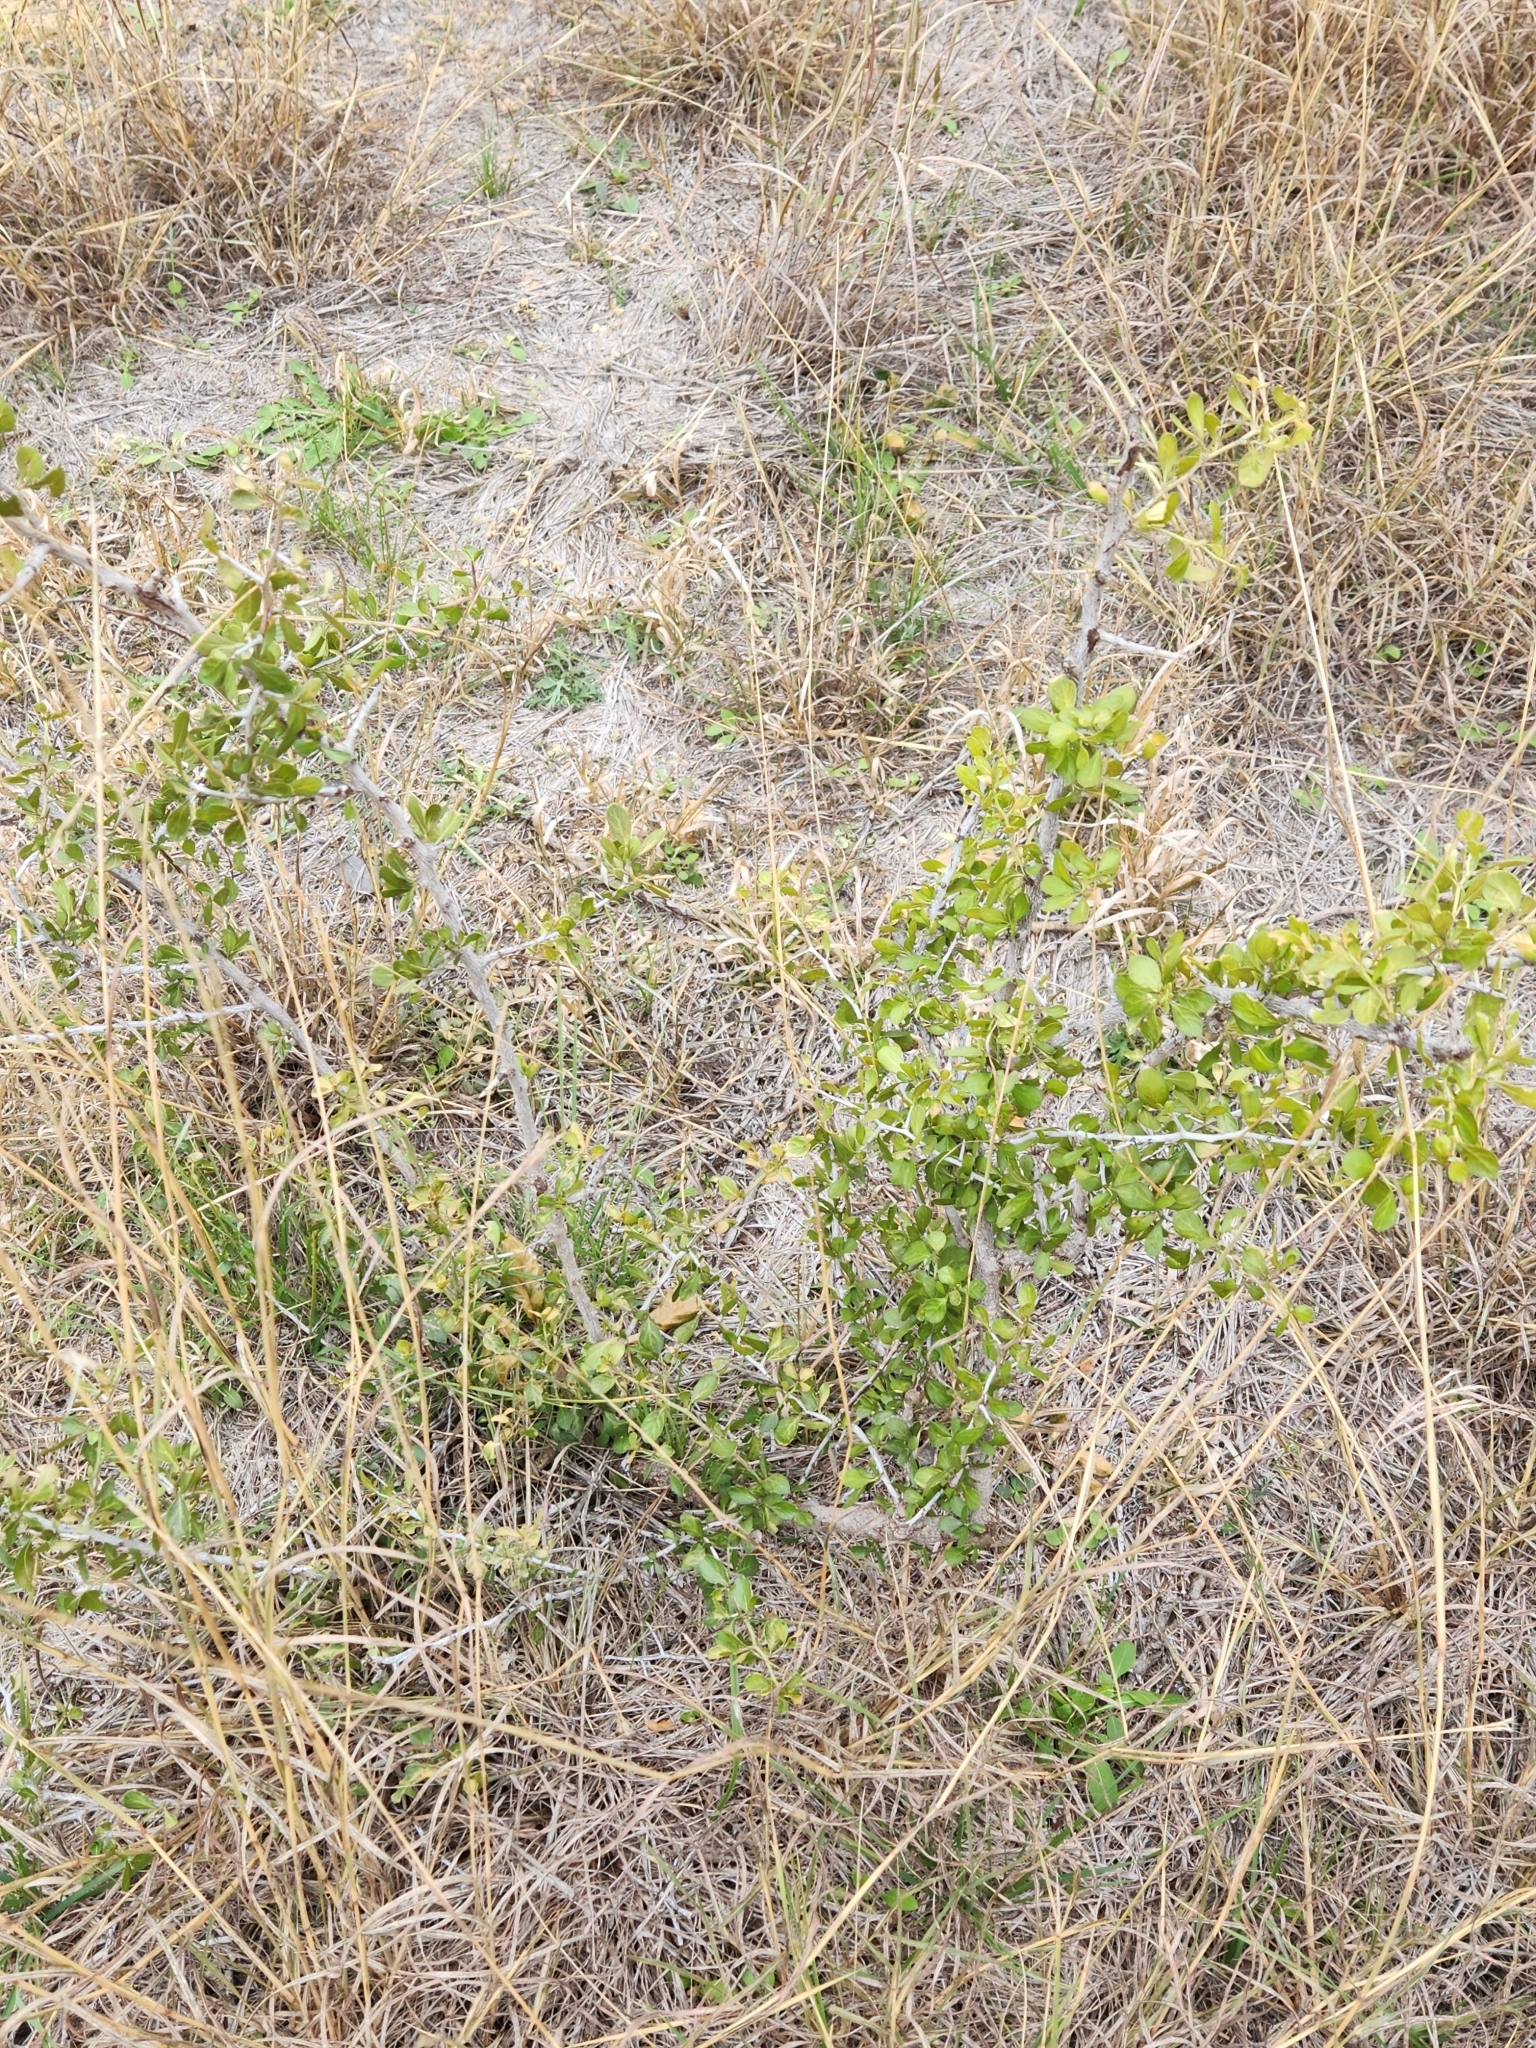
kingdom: Plantae
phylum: Tracheophyta
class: Magnoliopsida
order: Rosales
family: Rhamnaceae
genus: Condalia
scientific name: Condalia hookeri
